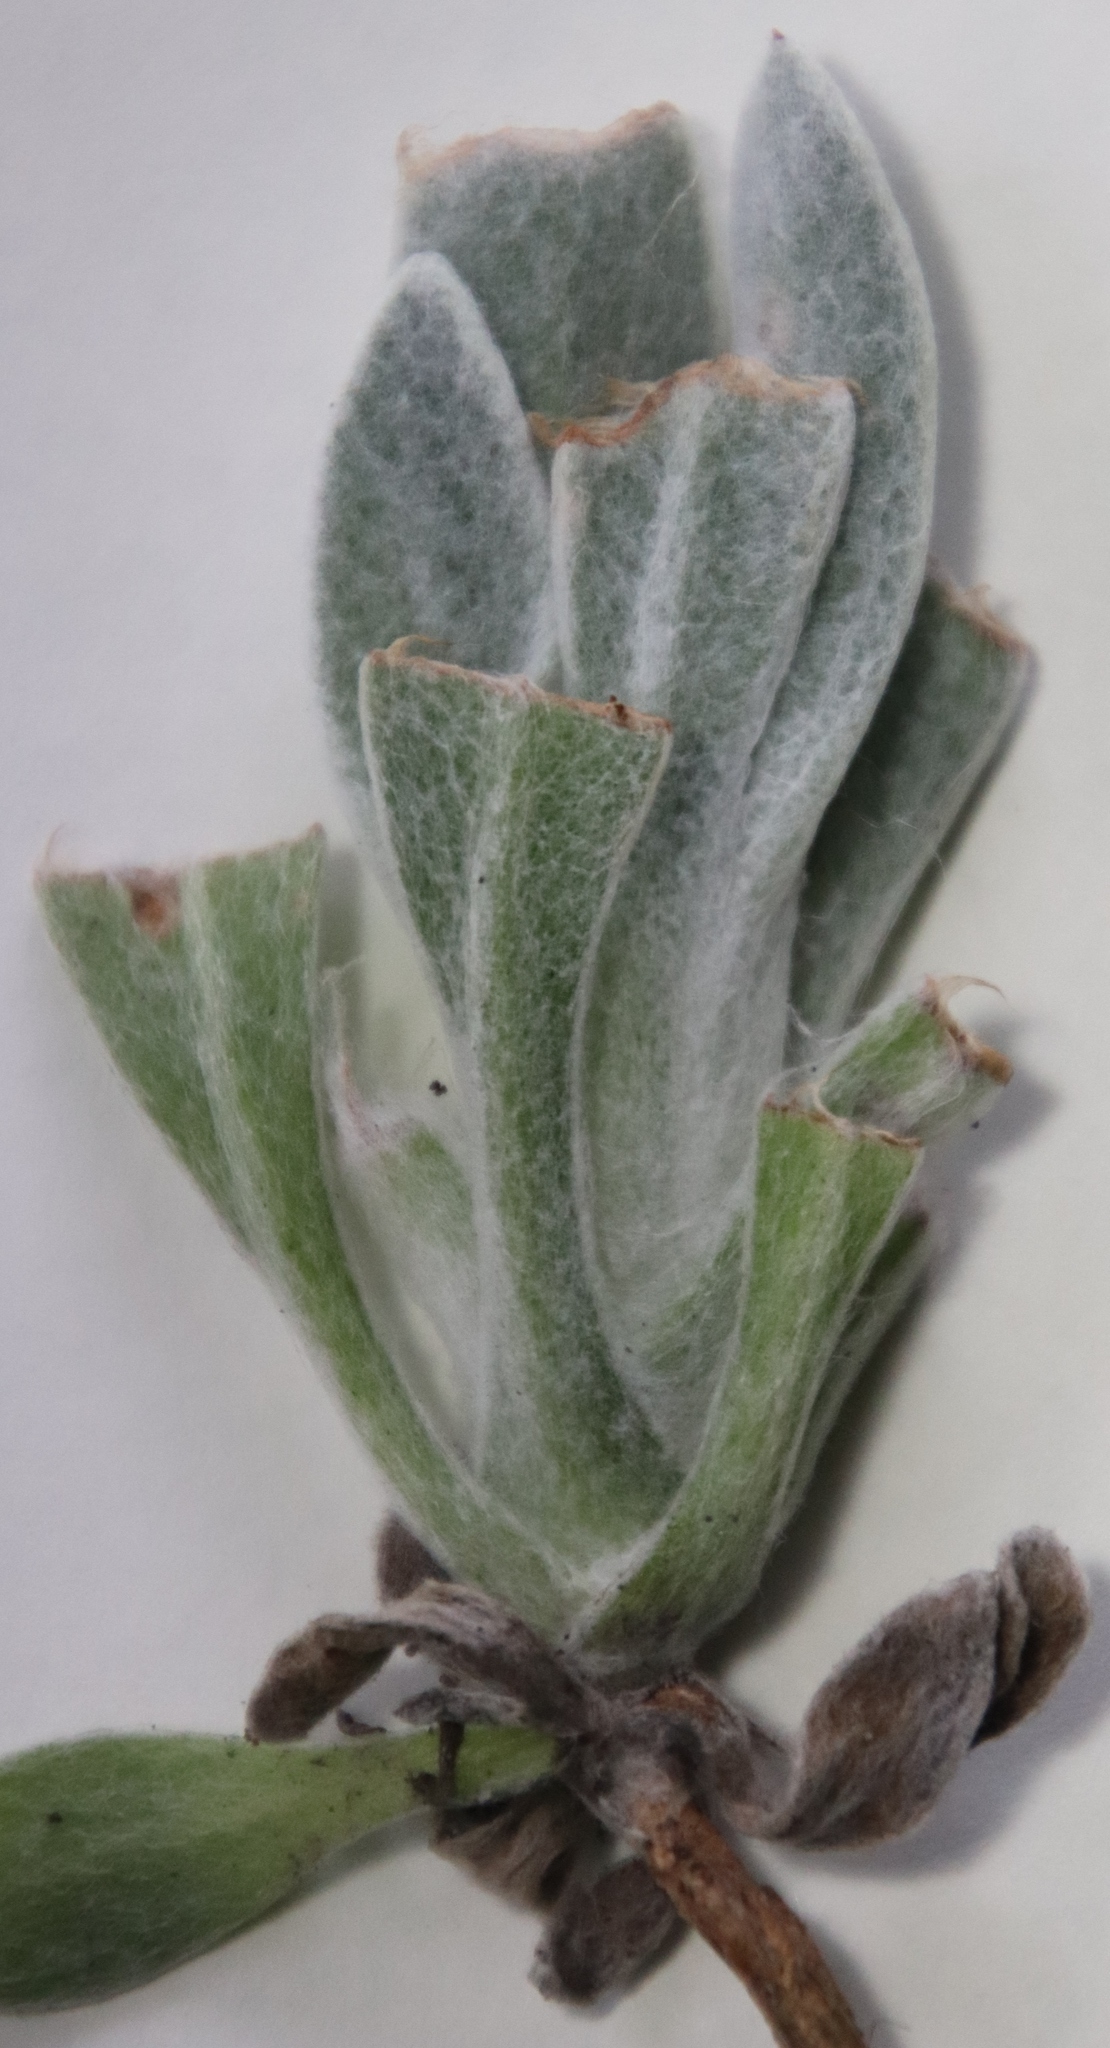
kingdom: Plantae
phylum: Tracheophyta
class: Magnoliopsida
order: Asterales
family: Asteraceae
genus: Syncarpha
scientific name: Syncarpha vestita
